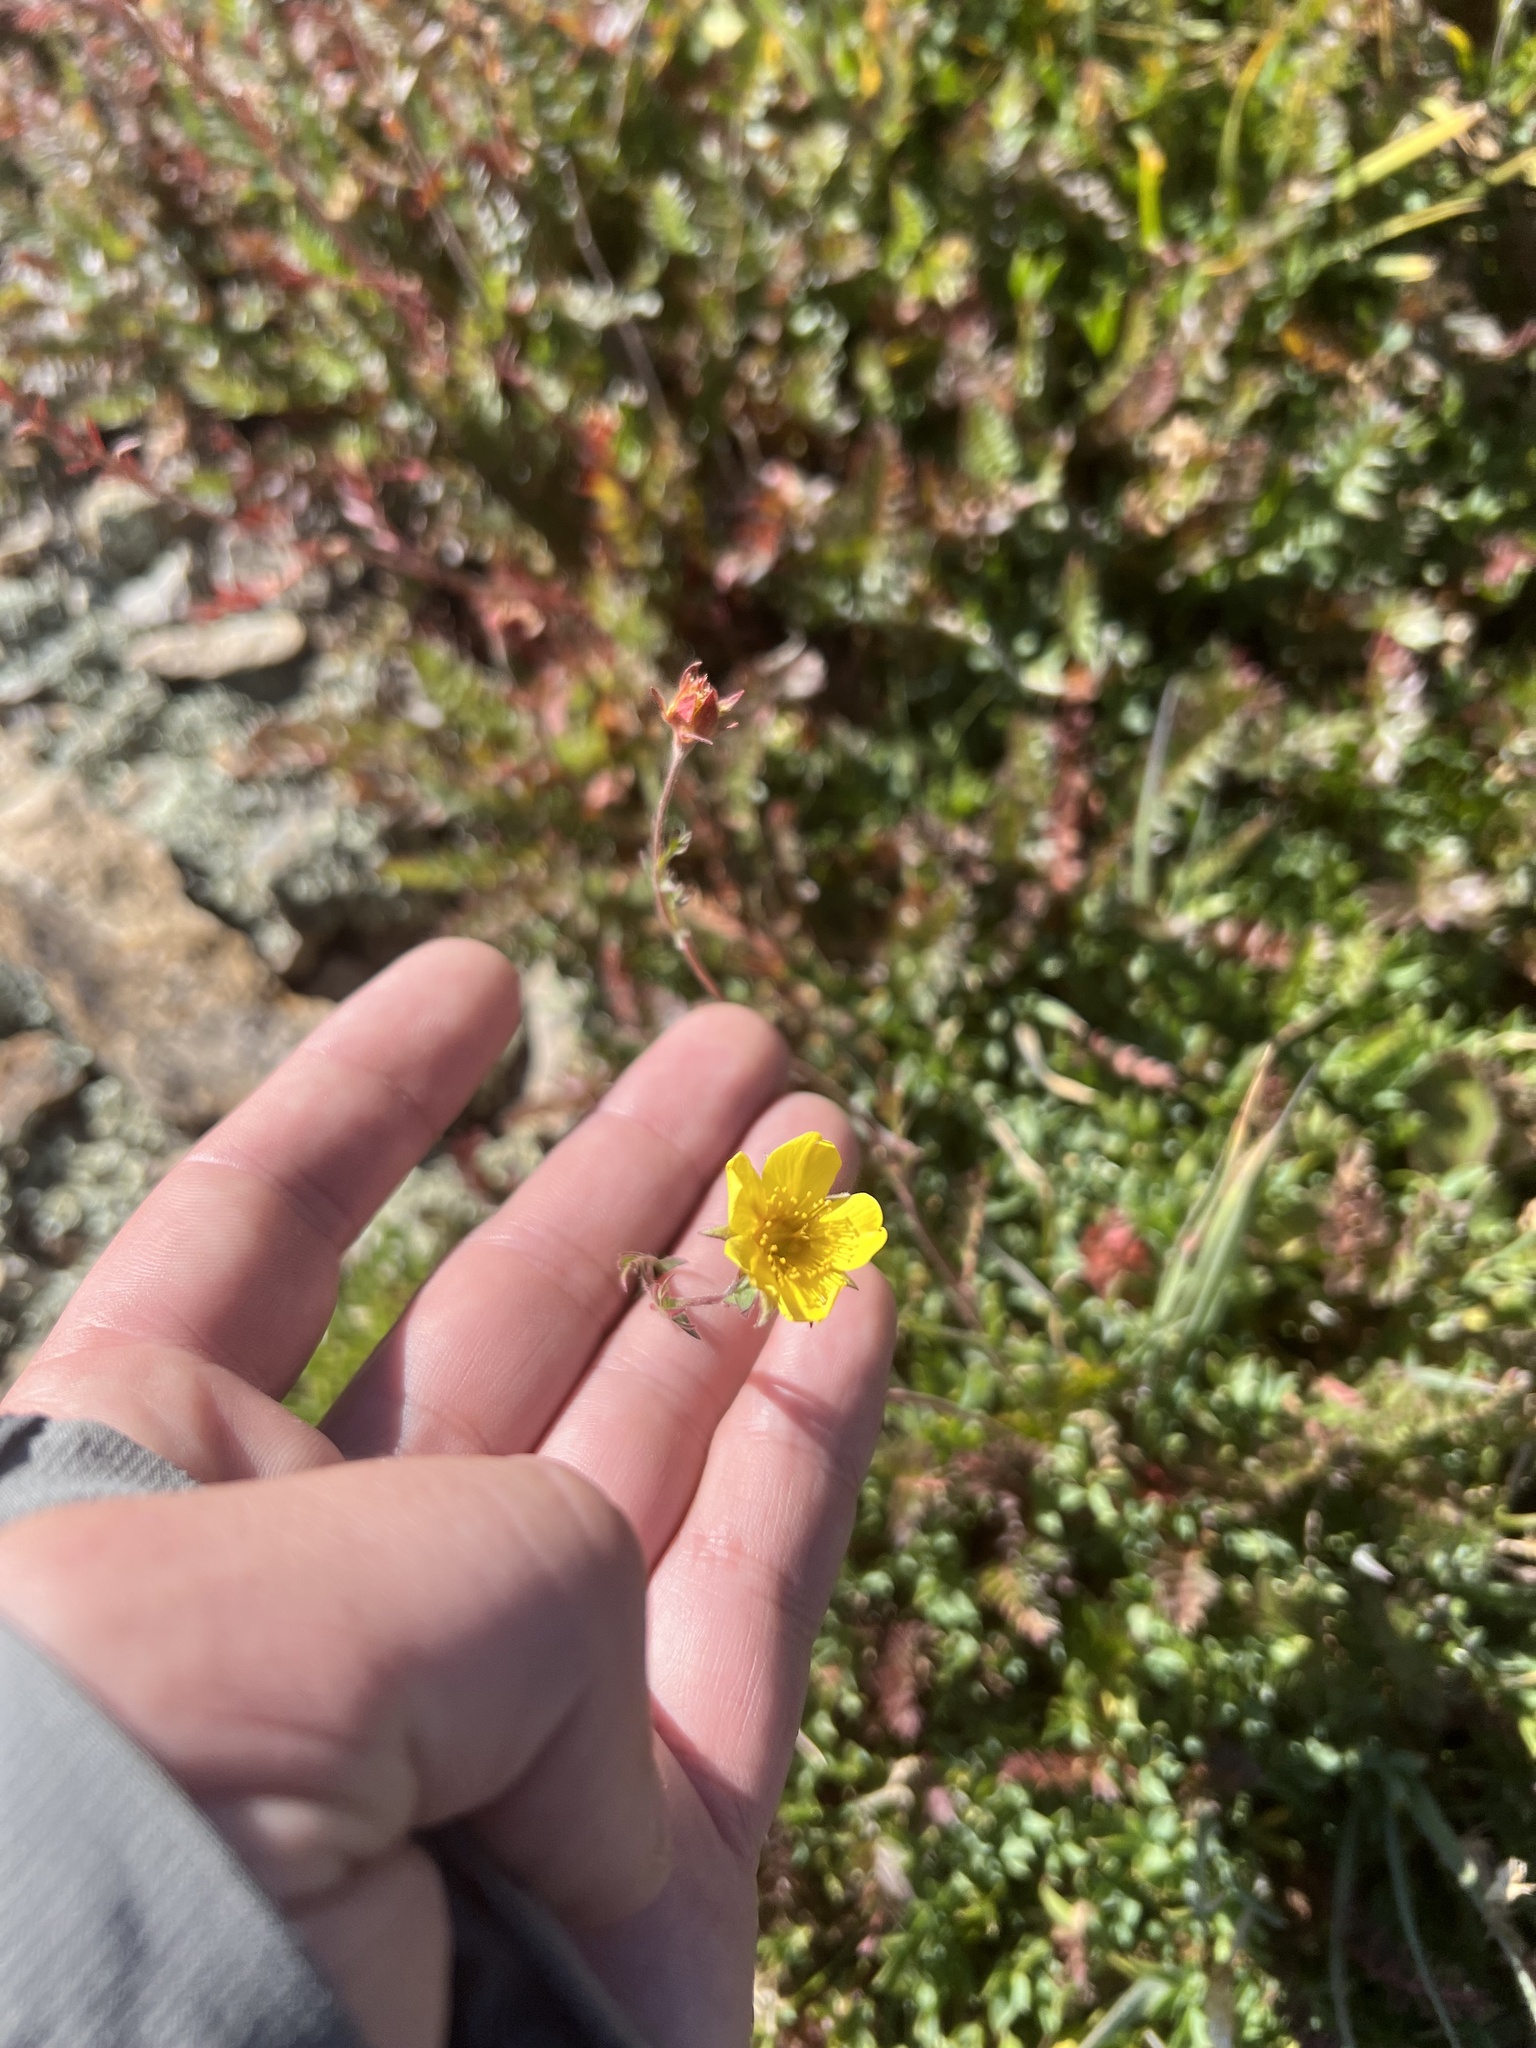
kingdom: Plantae
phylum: Tracheophyta
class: Magnoliopsida
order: Rosales
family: Rosaceae
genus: Geum
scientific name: Geum rossii
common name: Alpine avens
